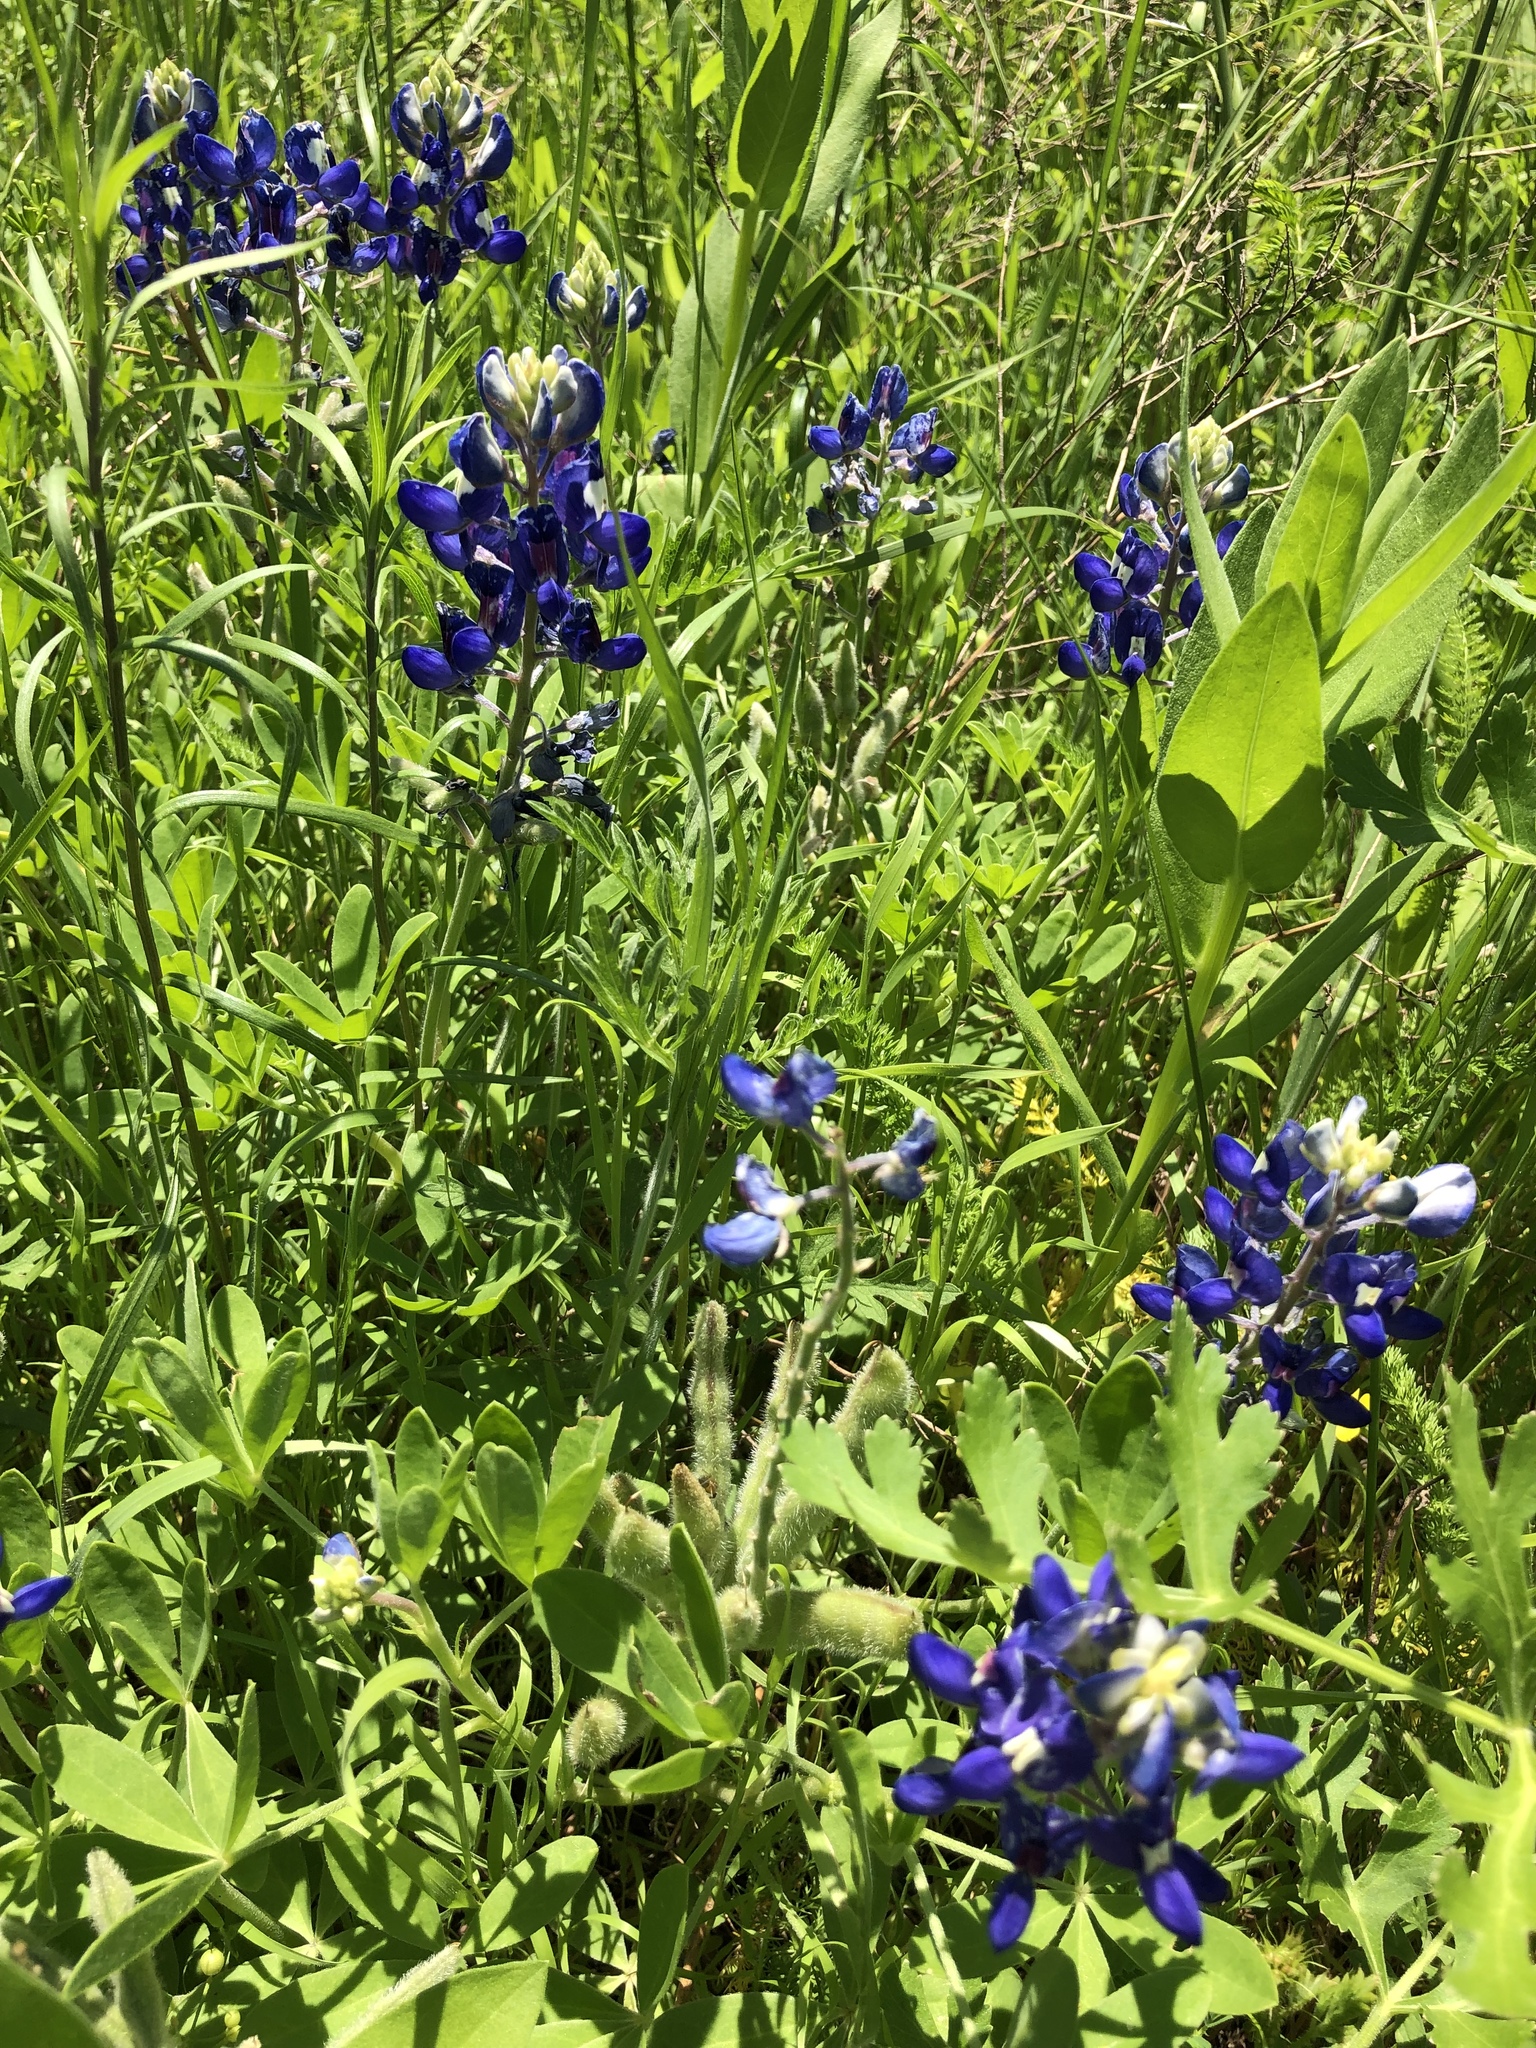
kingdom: Plantae
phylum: Tracheophyta
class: Magnoliopsida
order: Fabales
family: Fabaceae
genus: Lupinus
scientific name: Lupinus texensis
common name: Texas bluebonnet
